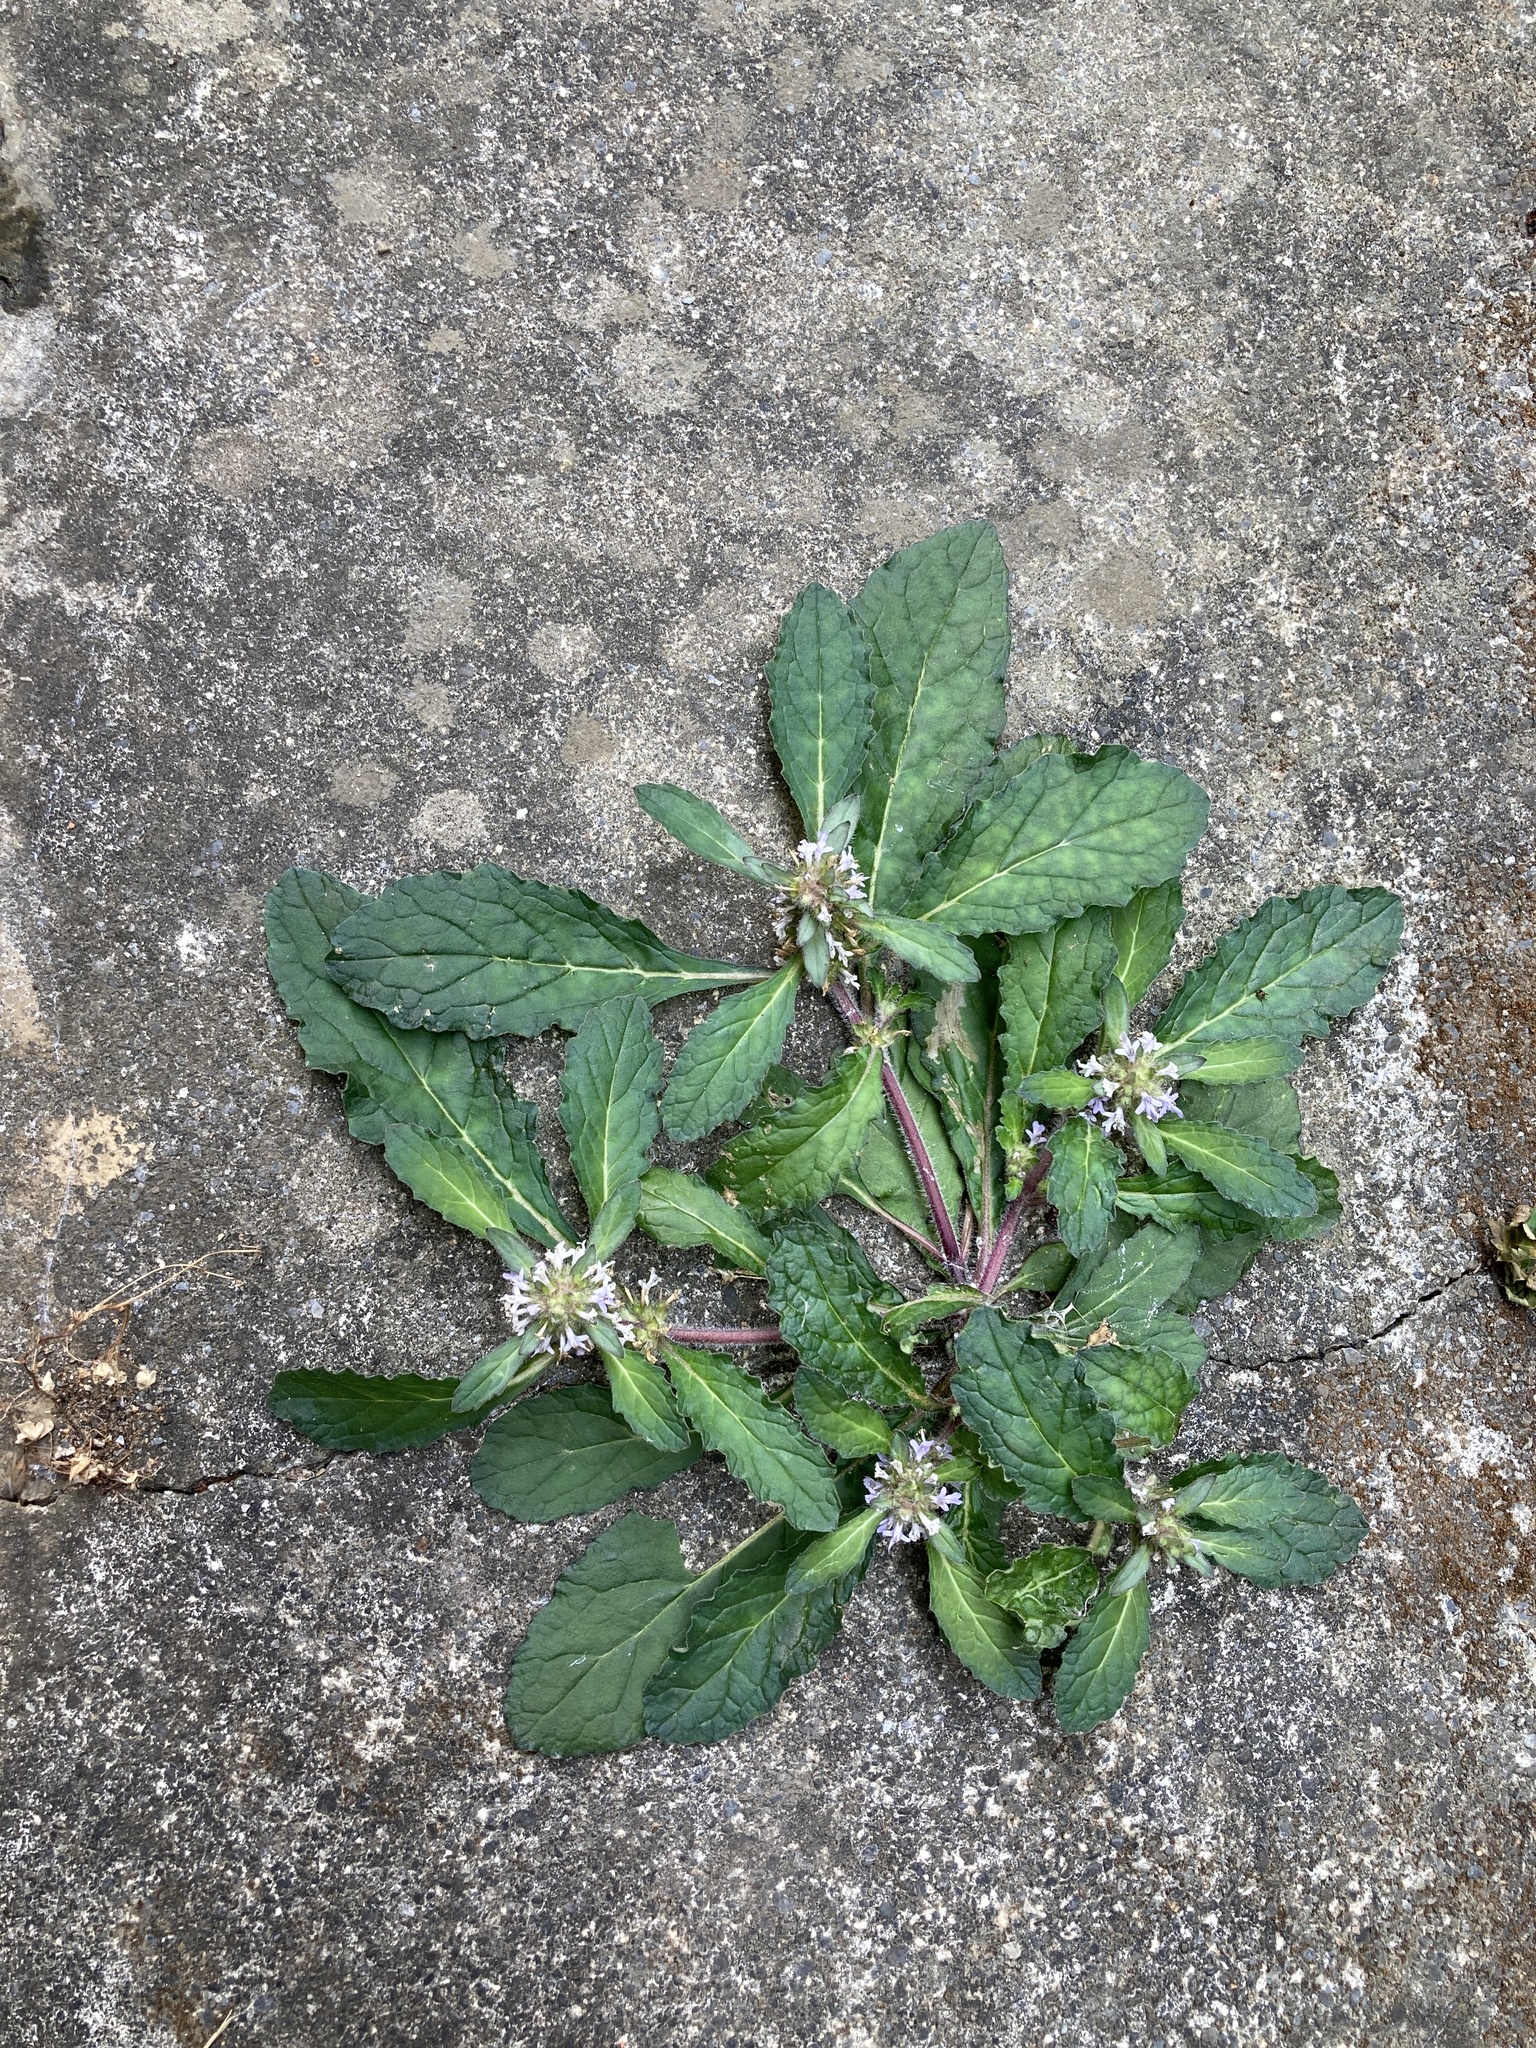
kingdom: Plantae
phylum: Tracheophyta
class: Magnoliopsida
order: Lamiales
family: Lamiaceae
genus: Ajuga
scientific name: Ajuga taiwanensis
